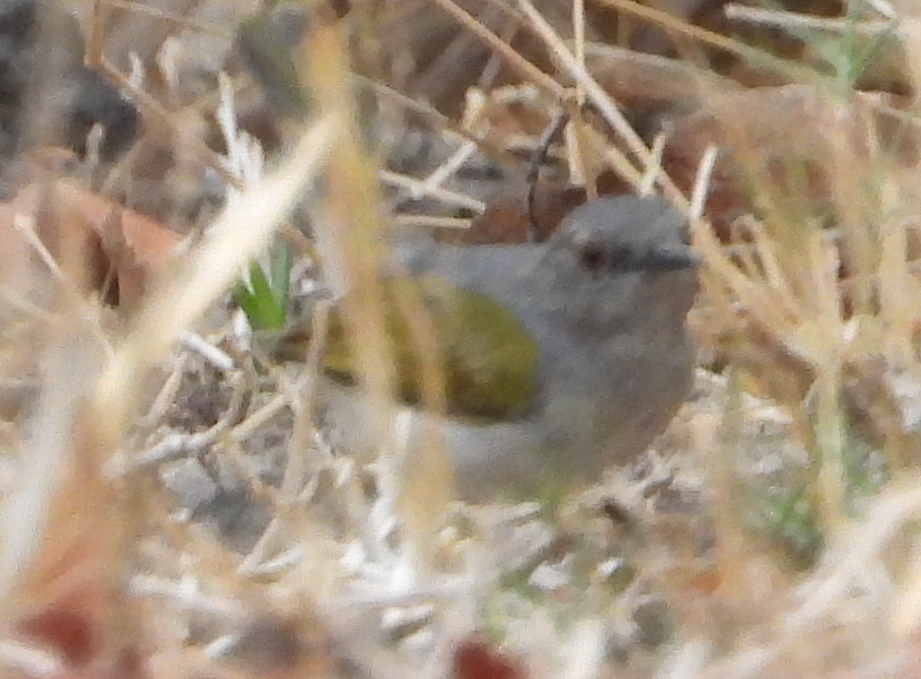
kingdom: Animalia
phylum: Chordata
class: Aves
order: Passeriformes
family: Cisticolidae
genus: Camaroptera
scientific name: Camaroptera brachyura
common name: Green-backed camaroptera
